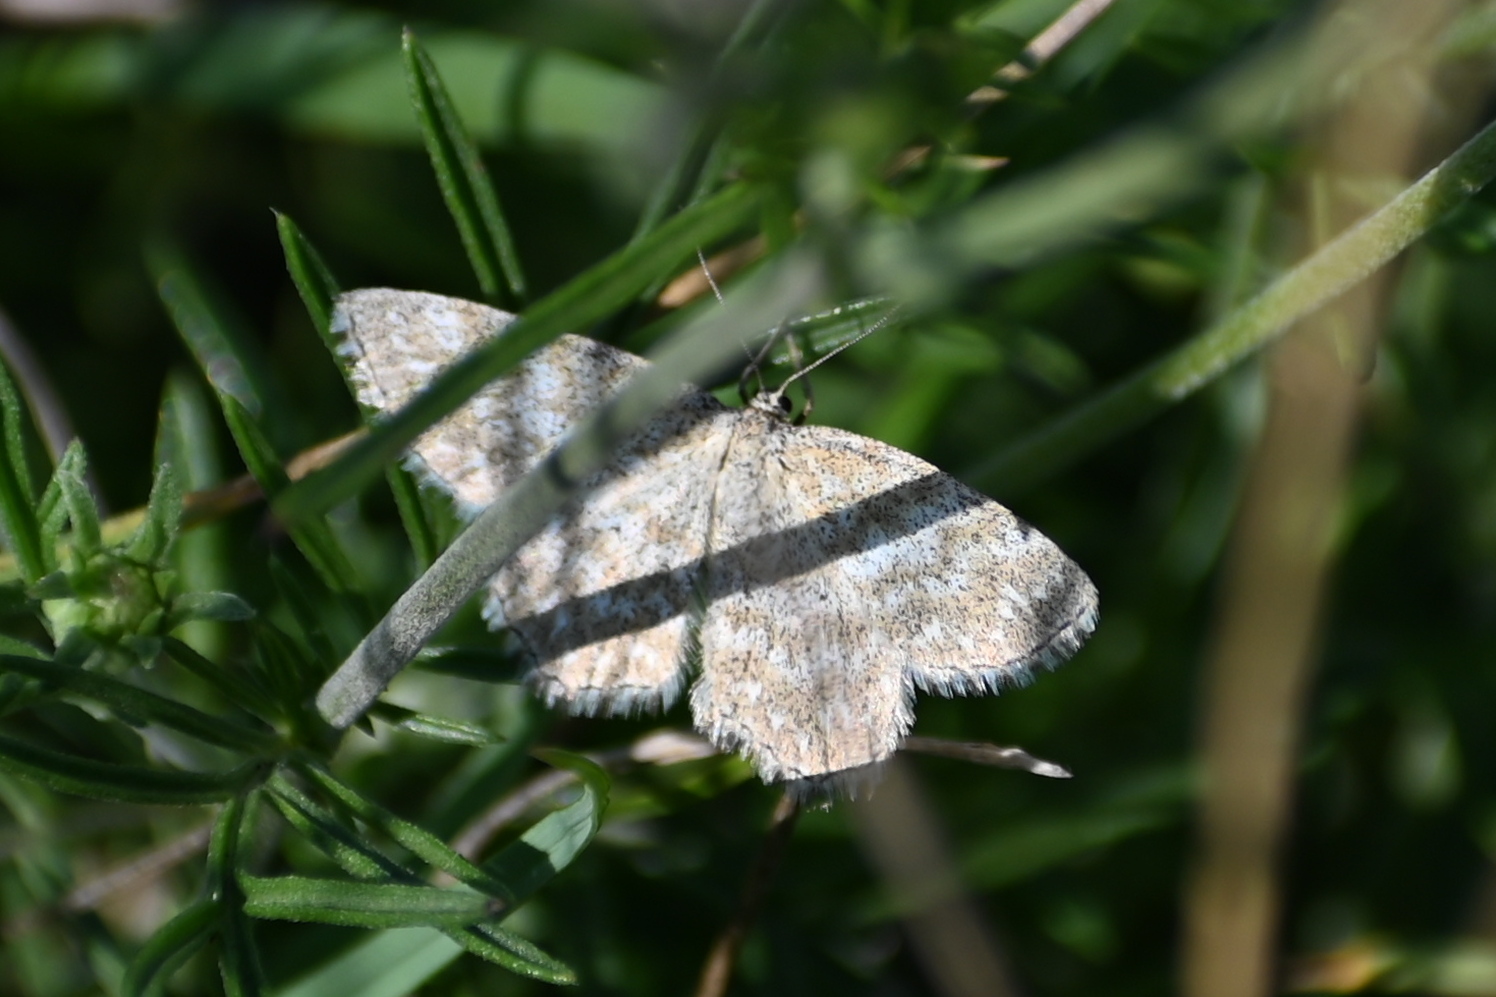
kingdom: Animalia
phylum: Arthropoda
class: Insecta
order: Lepidoptera
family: Geometridae
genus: Scopula
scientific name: Scopula immorata
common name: Lewes wave
